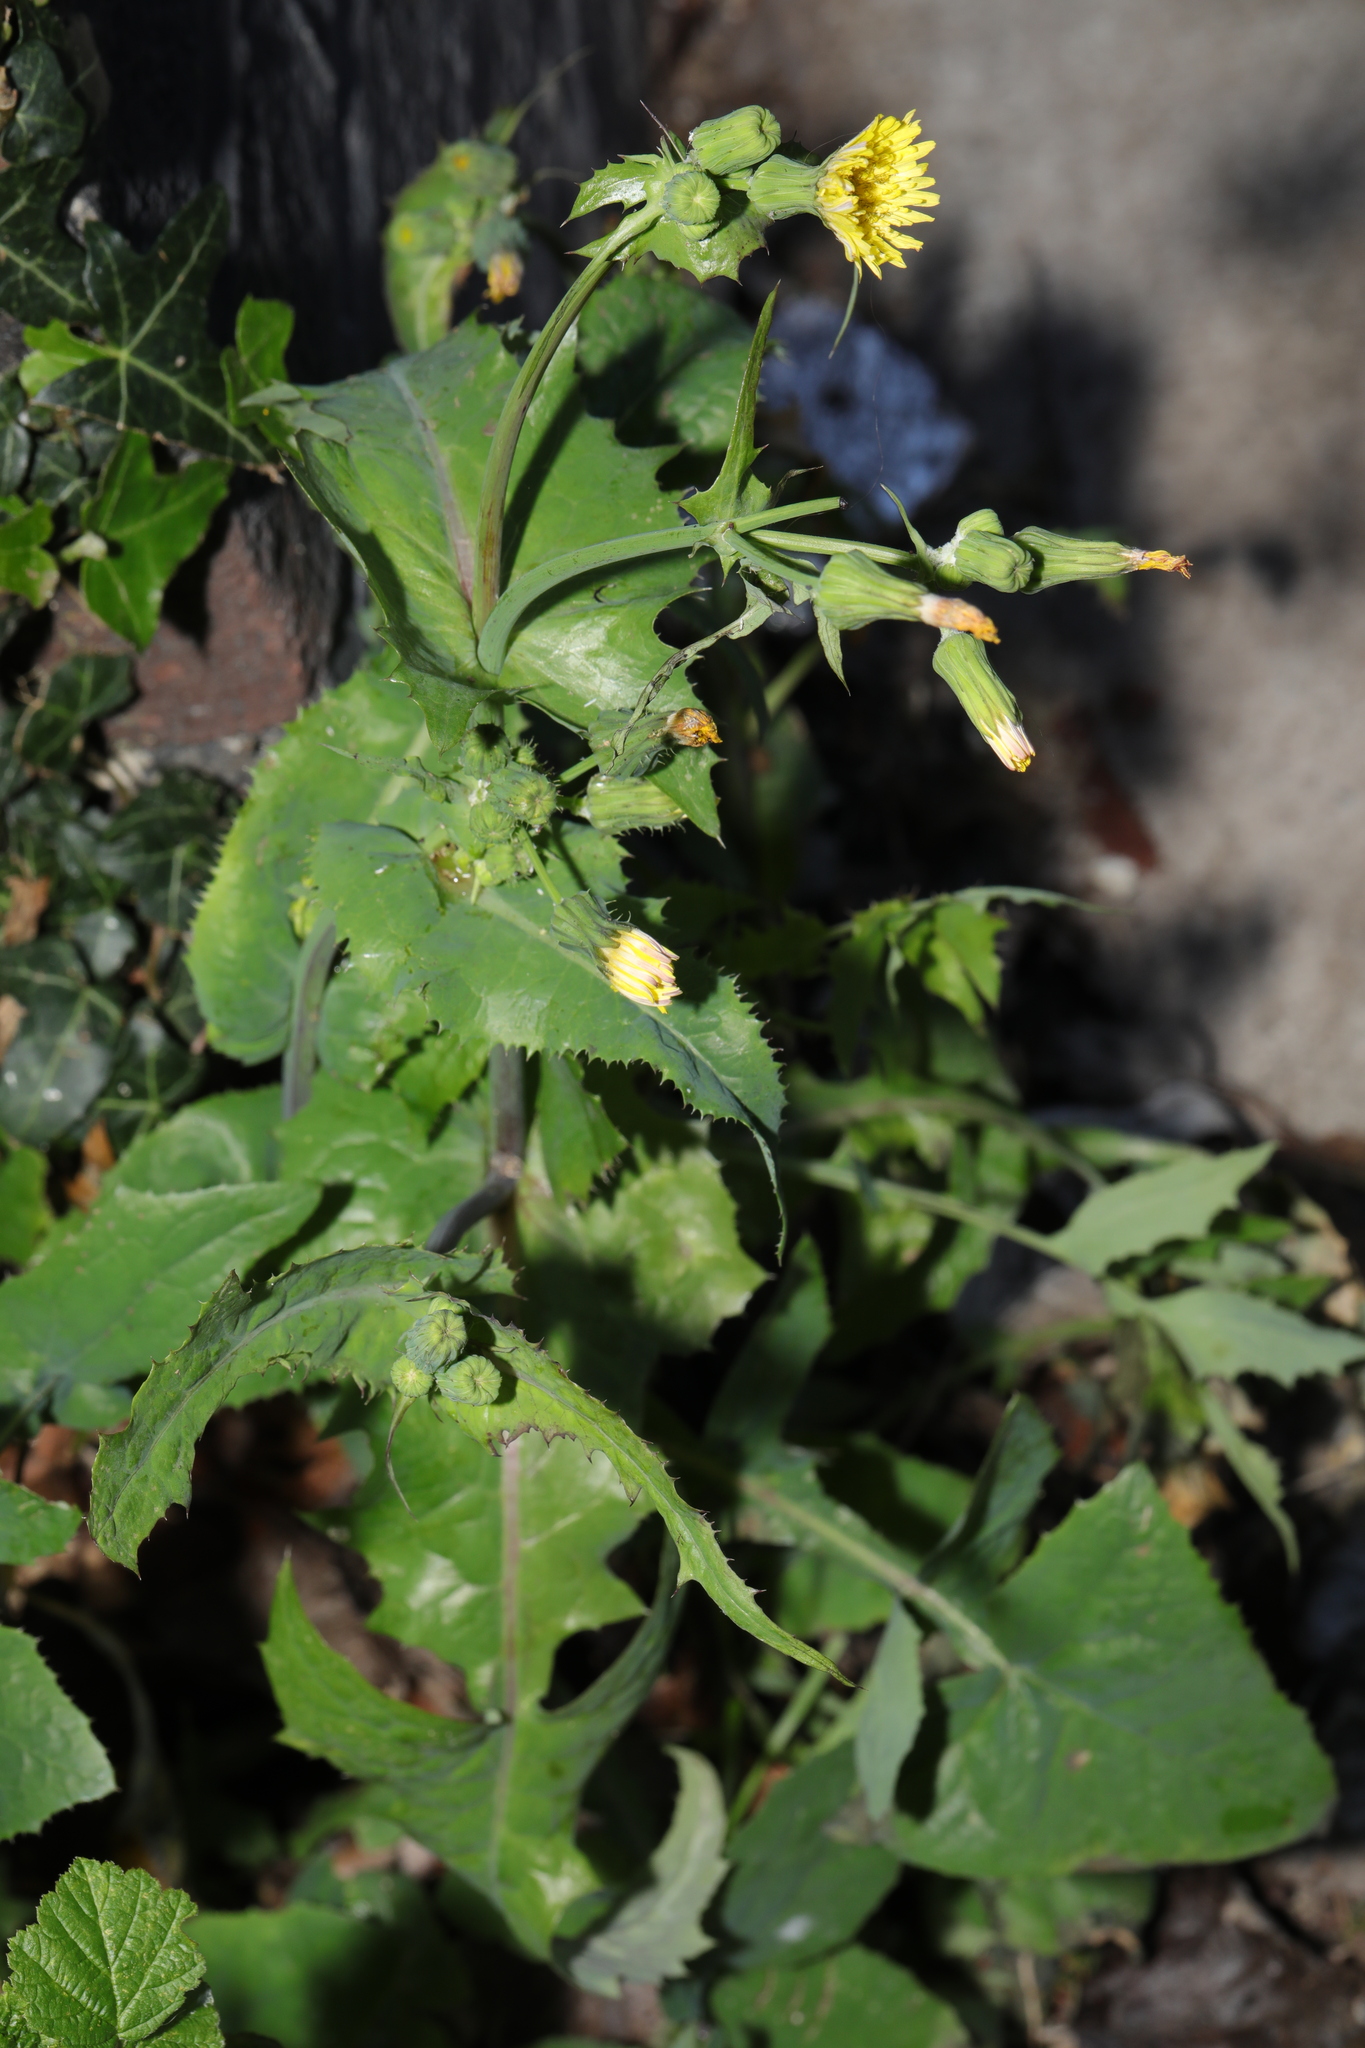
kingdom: Plantae
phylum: Tracheophyta
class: Magnoliopsida
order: Asterales
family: Asteraceae
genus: Sonchus
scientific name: Sonchus oleraceus
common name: Common sowthistle
